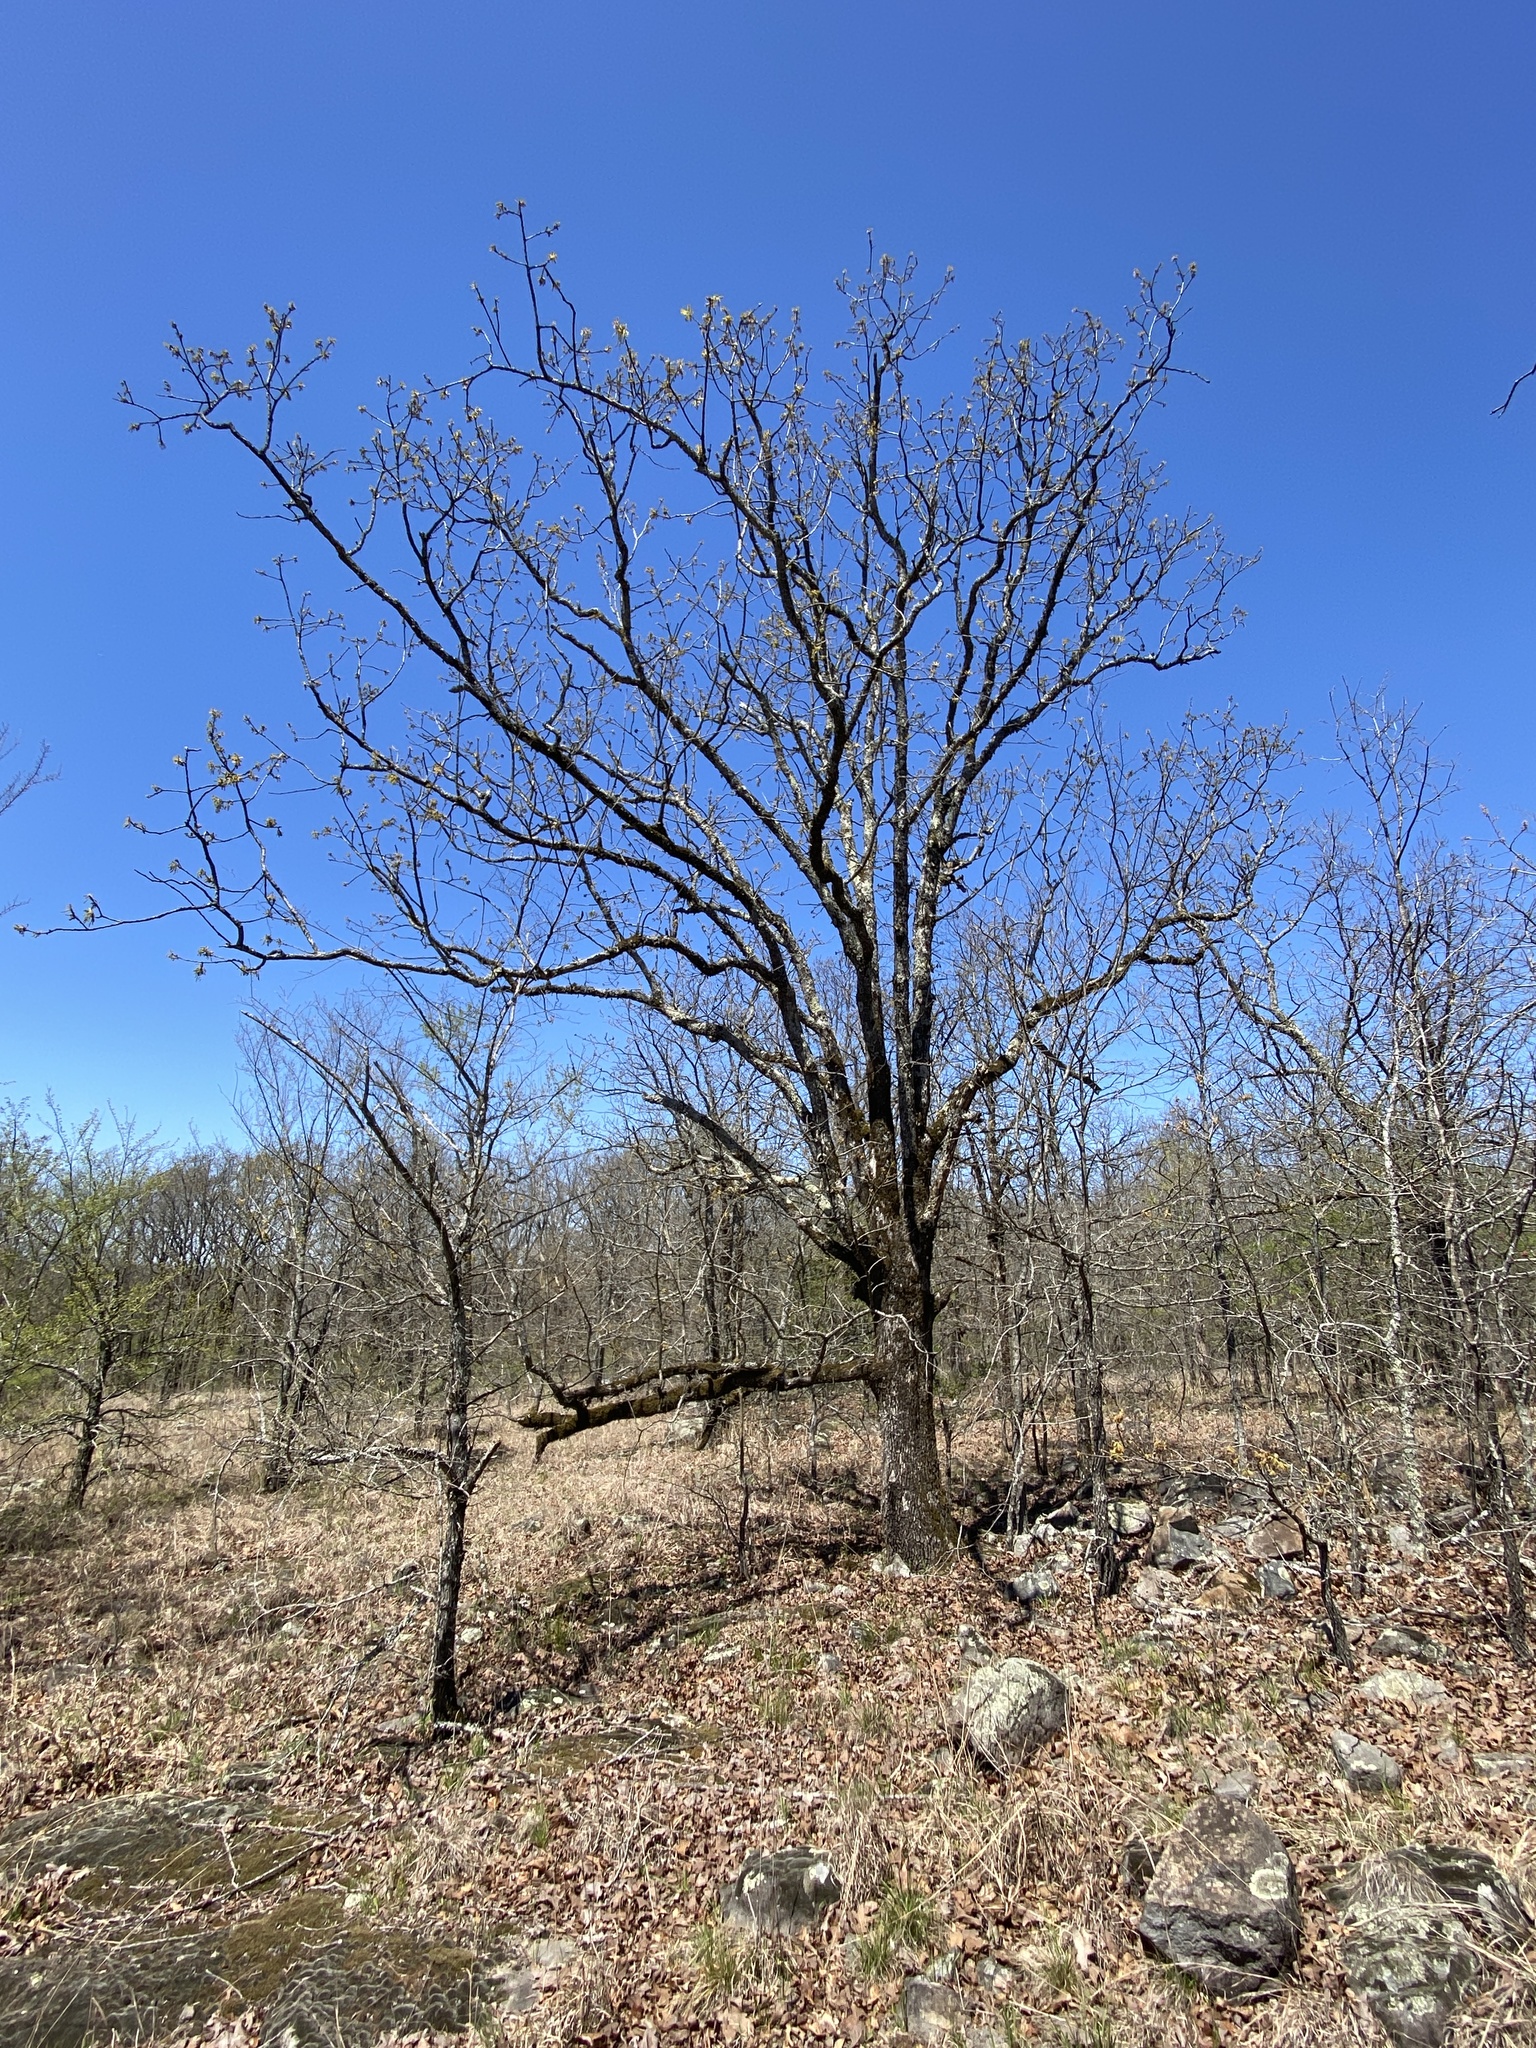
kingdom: Plantae
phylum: Tracheophyta
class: Magnoliopsida
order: Fagales
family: Fagaceae
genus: Quercus
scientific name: Quercus stellata
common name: Post oak
